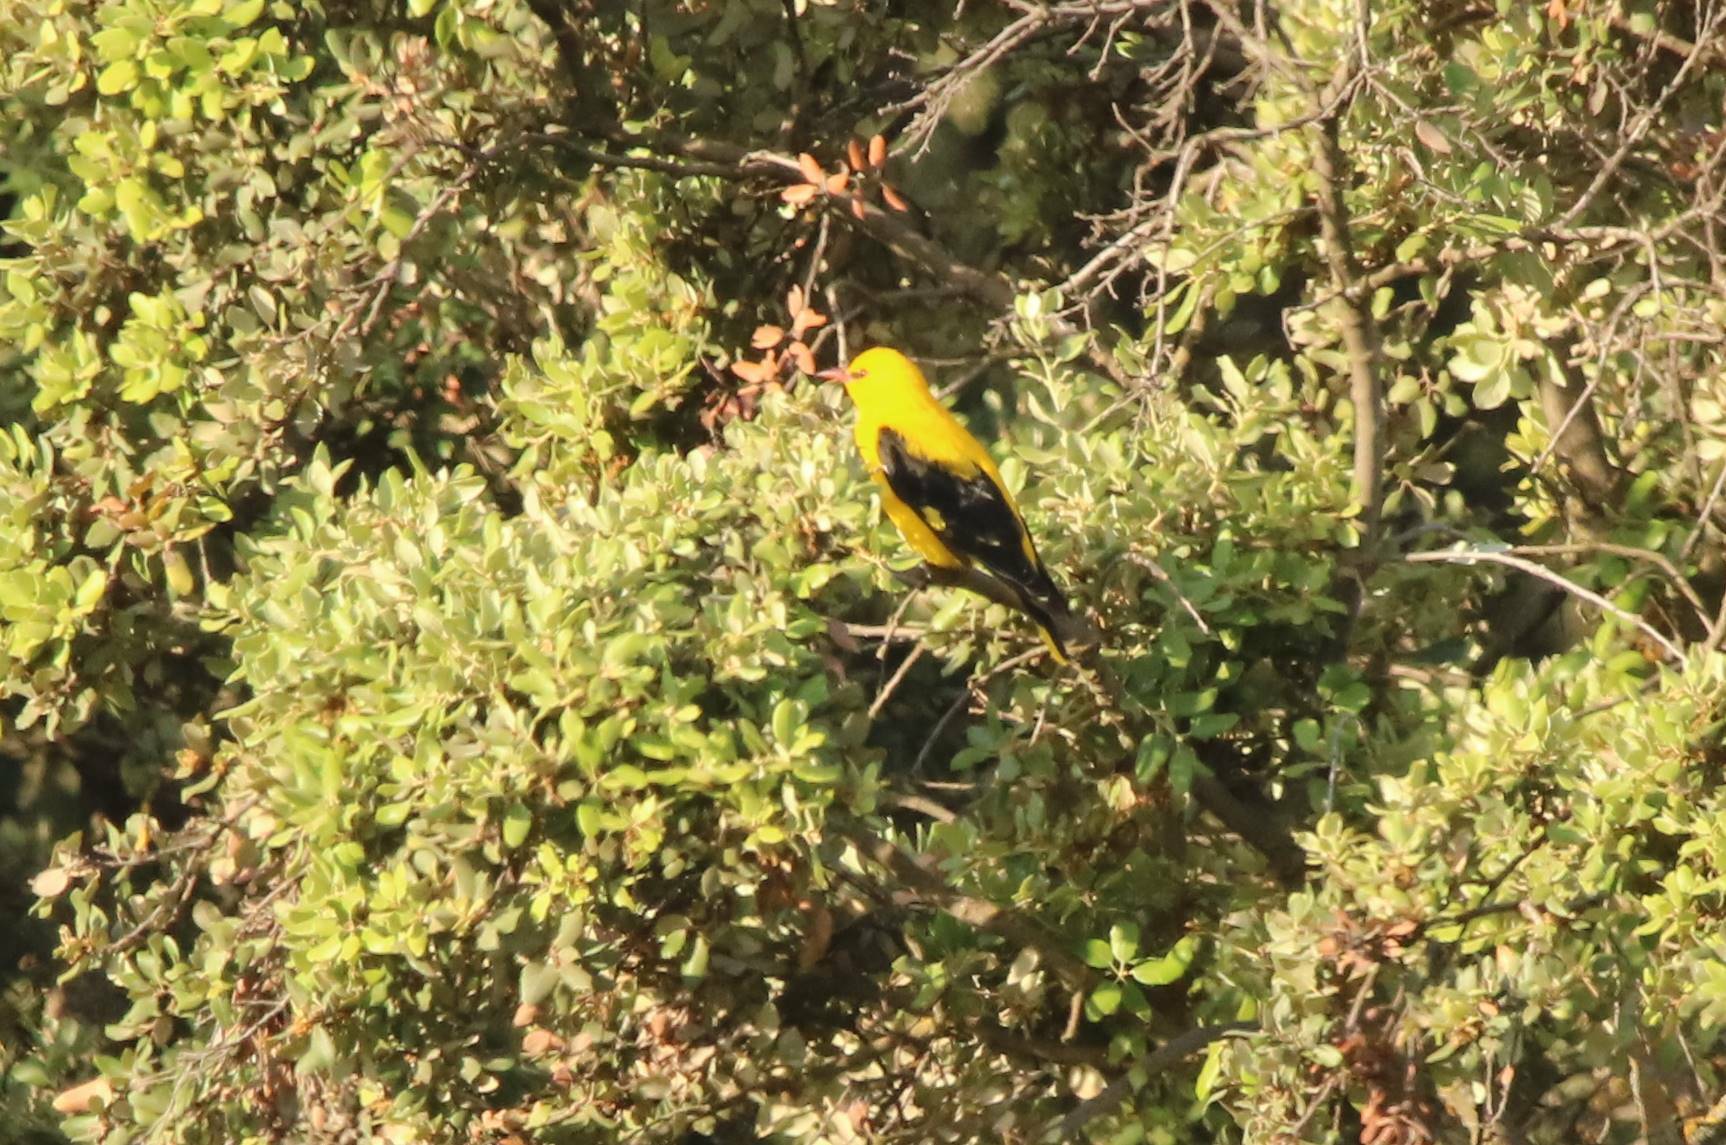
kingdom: Animalia
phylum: Chordata
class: Aves
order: Passeriformes
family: Oriolidae
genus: Oriolus
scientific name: Oriolus oriolus
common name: Eurasian golden oriole
